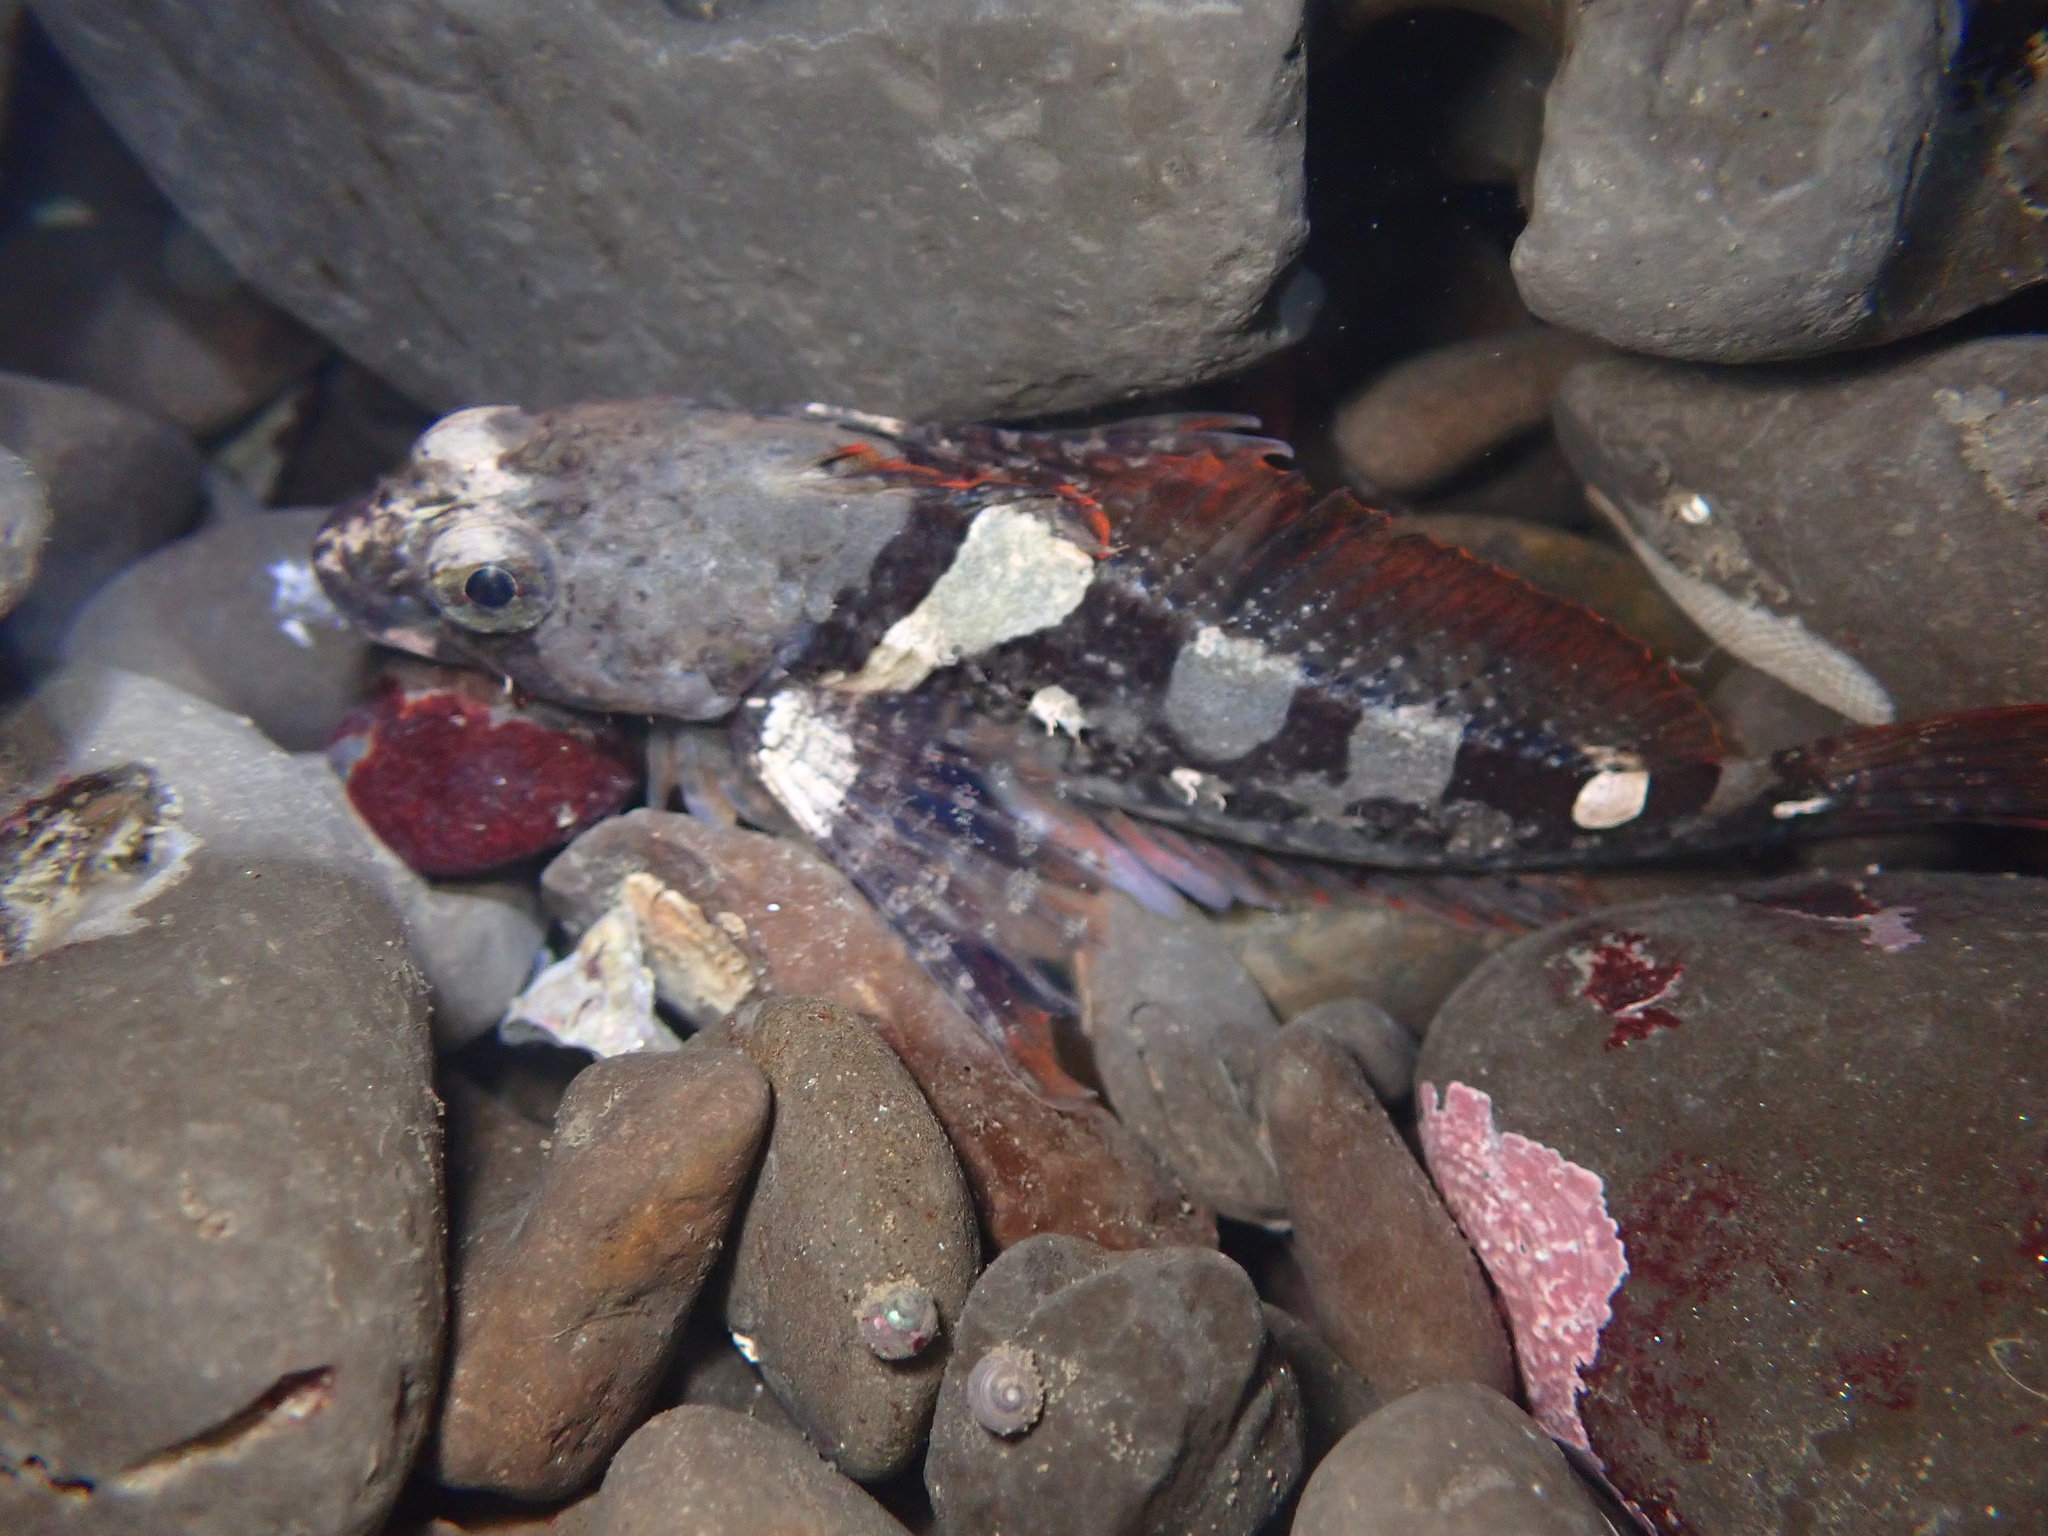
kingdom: Animalia
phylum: Chordata
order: Scorpaeniformes
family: Cottidae
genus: Oligocottus
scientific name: Oligocottus maculosus
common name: Tidepool sculpin
